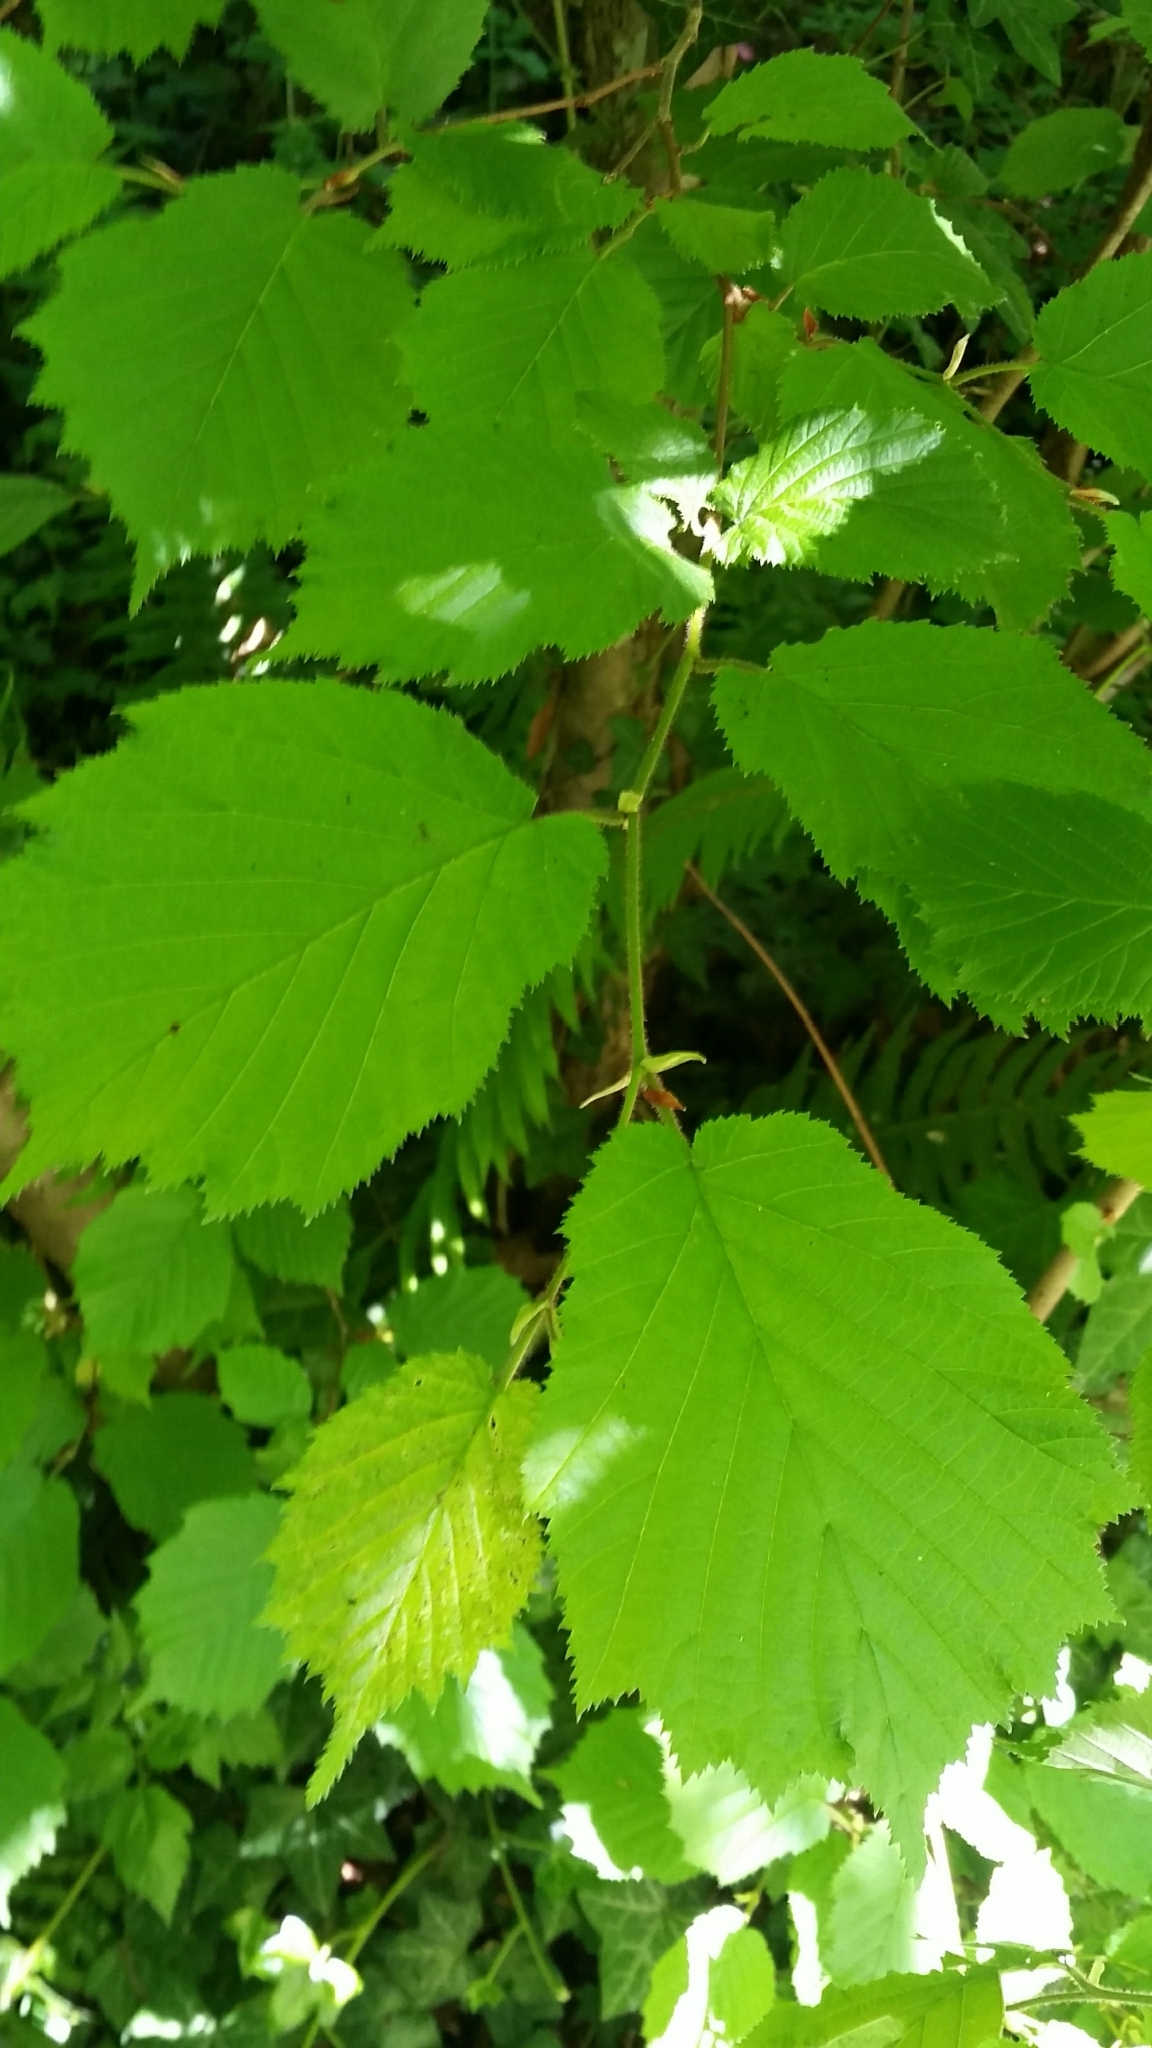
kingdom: Plantae
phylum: Tracheophyta
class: Magnoliopsida
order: Fagales
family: Betulaceae
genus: Corylus
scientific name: Corylus cornuta
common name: Beaked hazel
